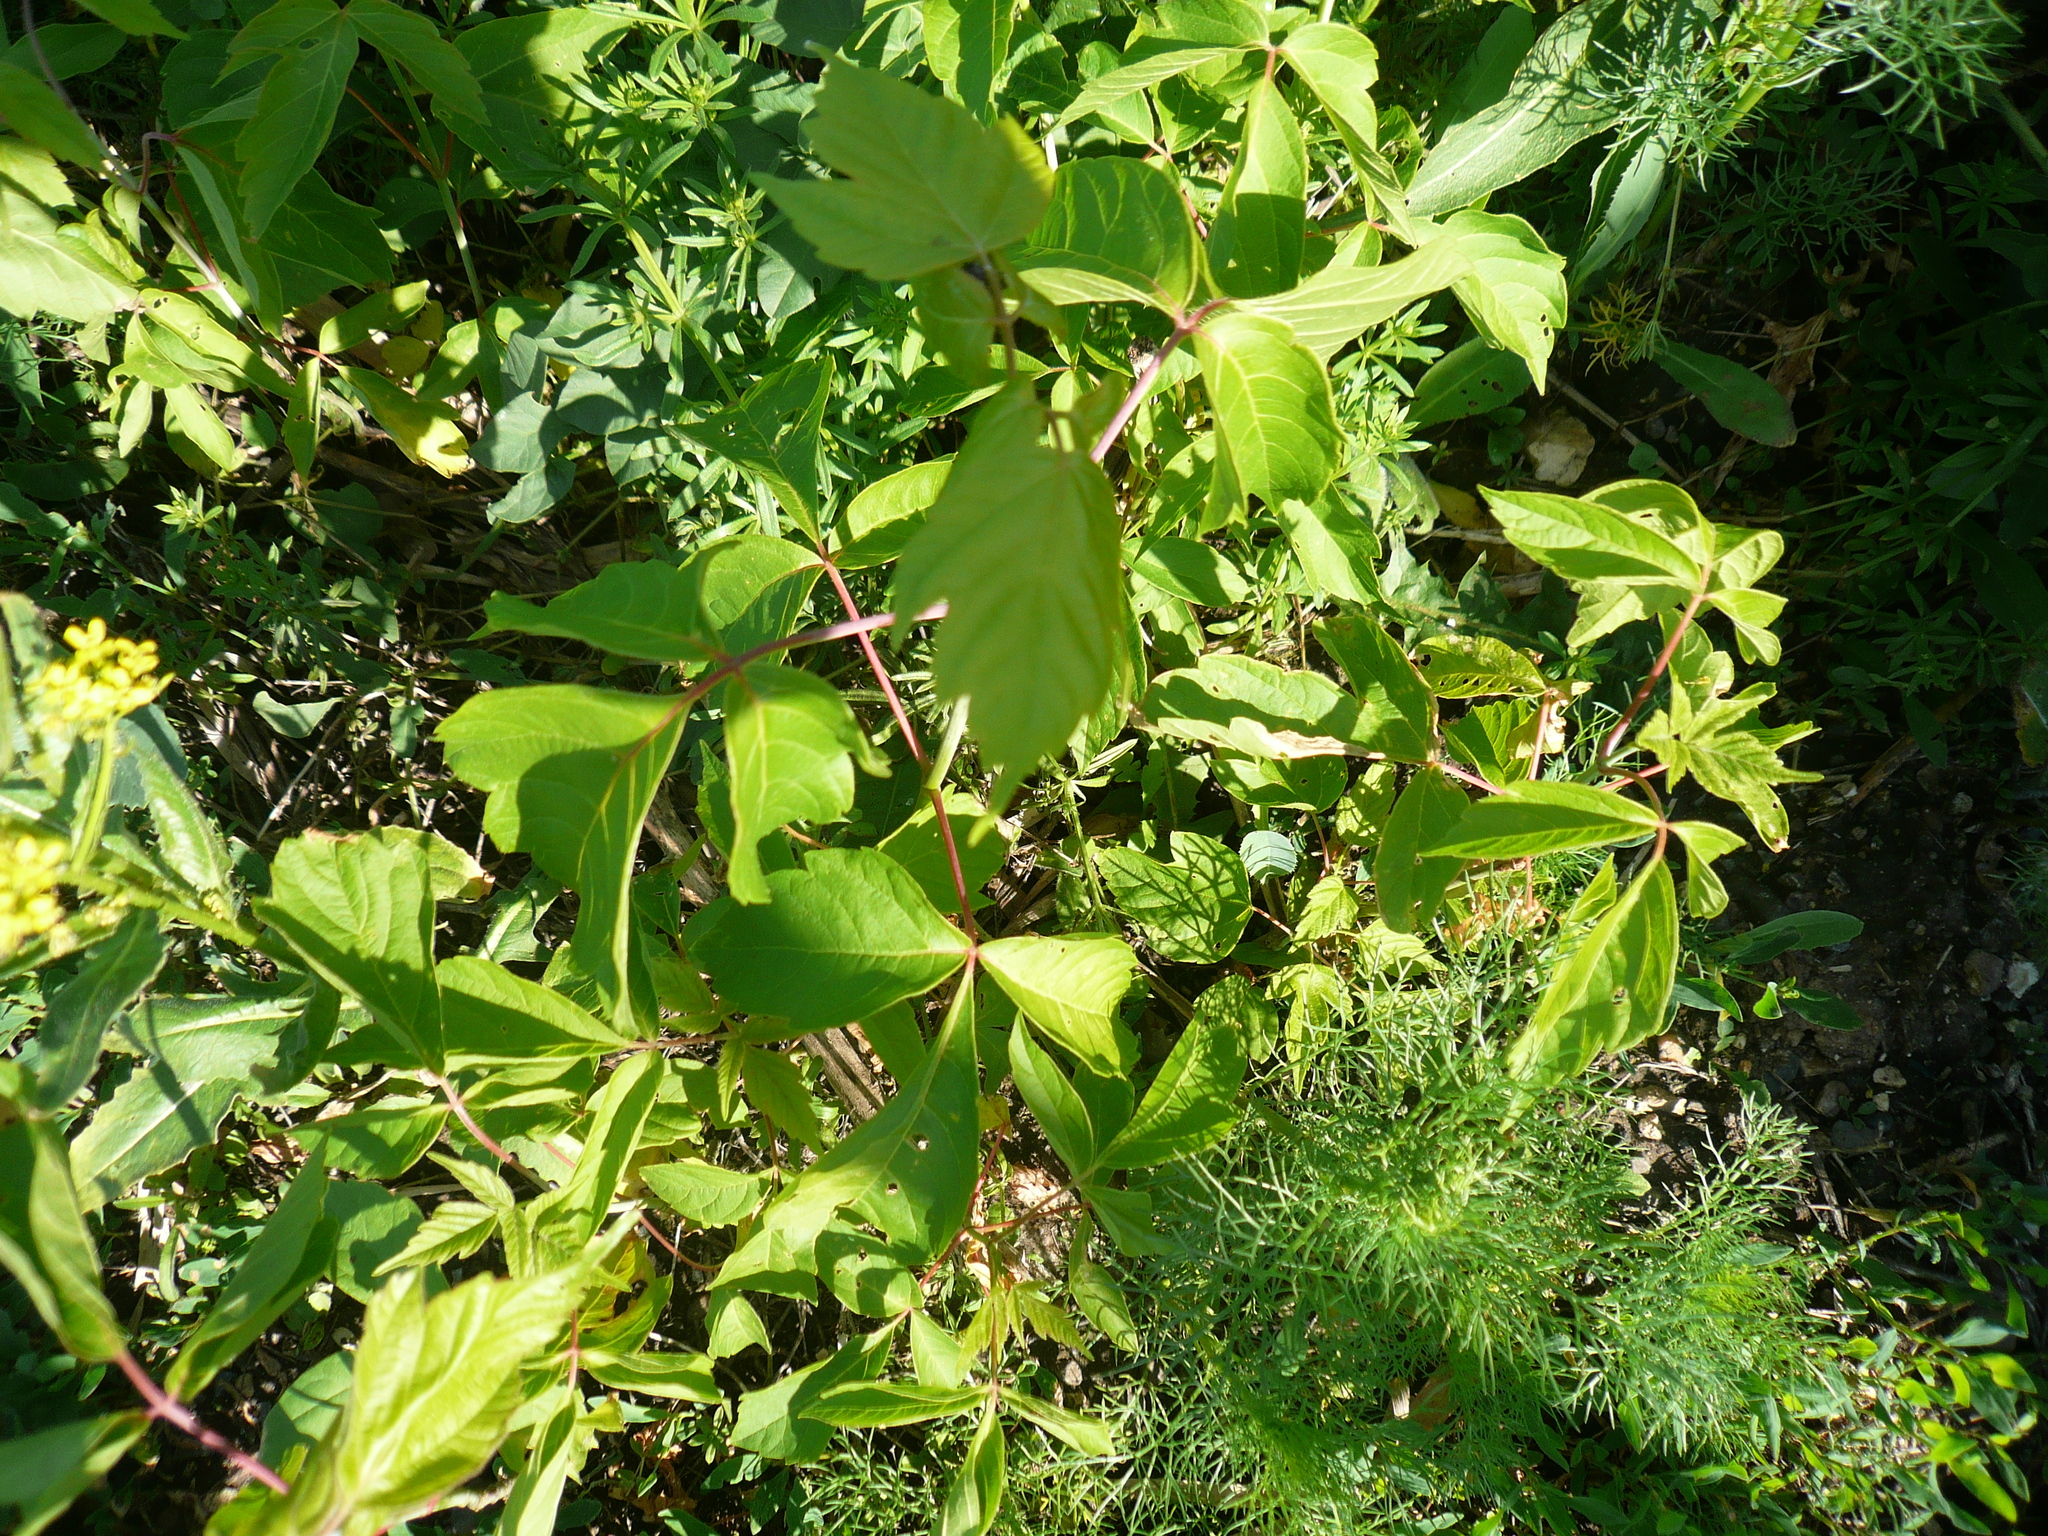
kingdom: Plantae
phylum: Tracheophyta
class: Magnoliopsida
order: Sapindales
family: Sapindaceae
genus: Acer
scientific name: Acer negundo
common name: Ashleaf maple
